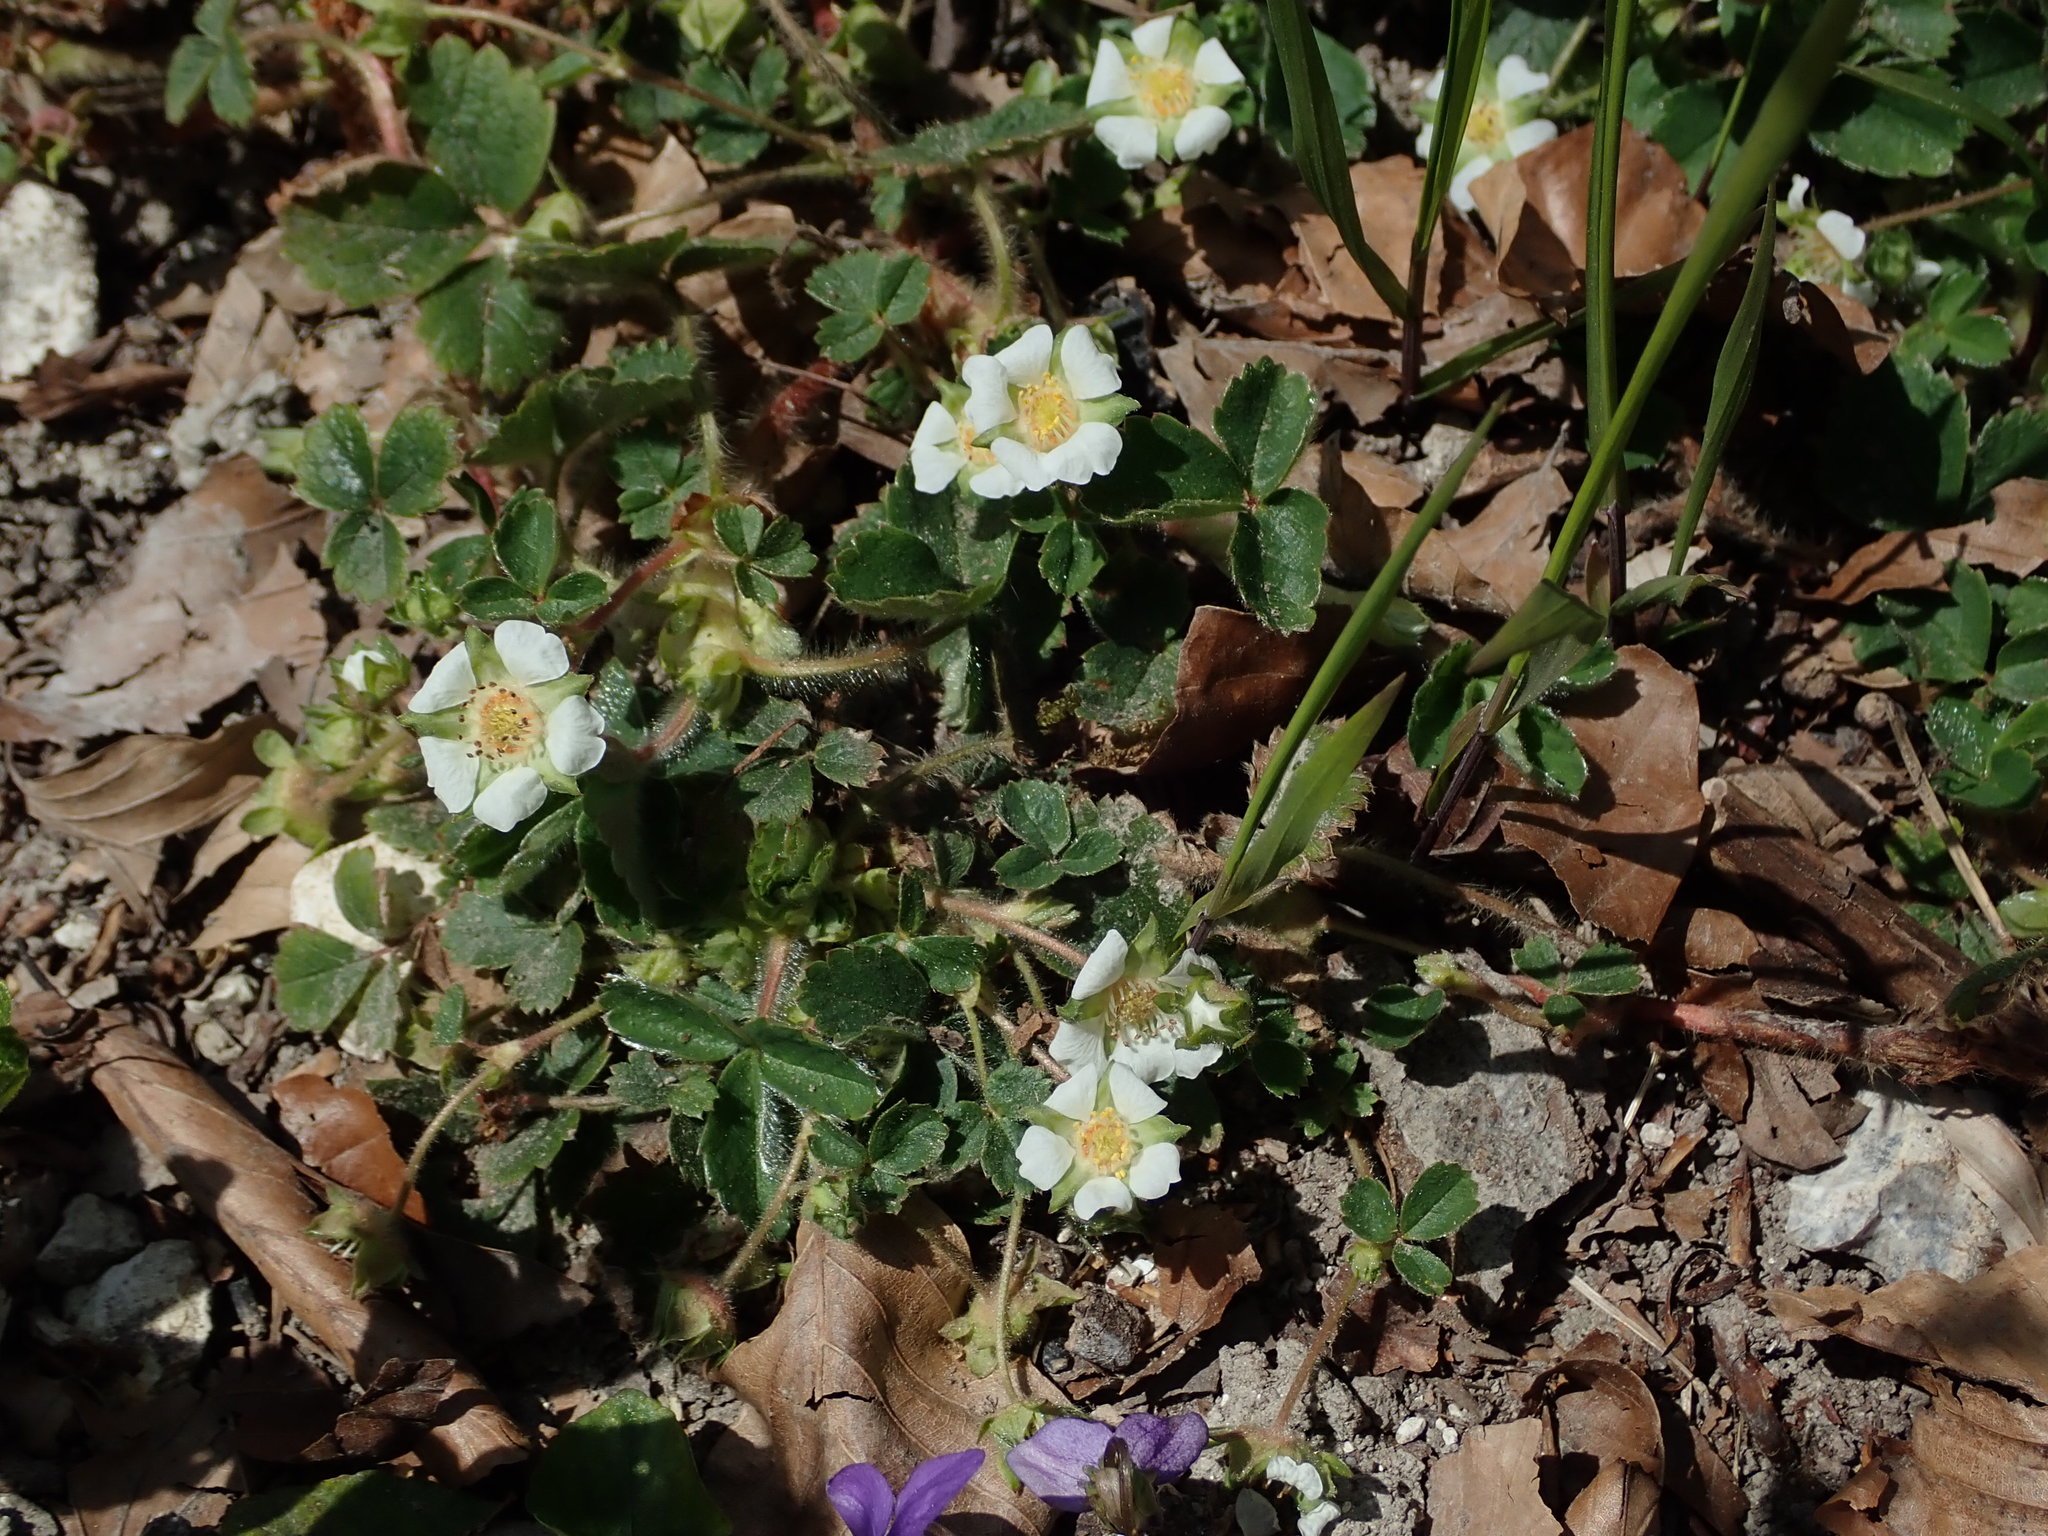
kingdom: Plantae
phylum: Tracheophyta
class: Magnoliopsida
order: Rosales
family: Rosaceae
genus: Potentilla
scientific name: Potentilla sterilis
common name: Barren strawberry
